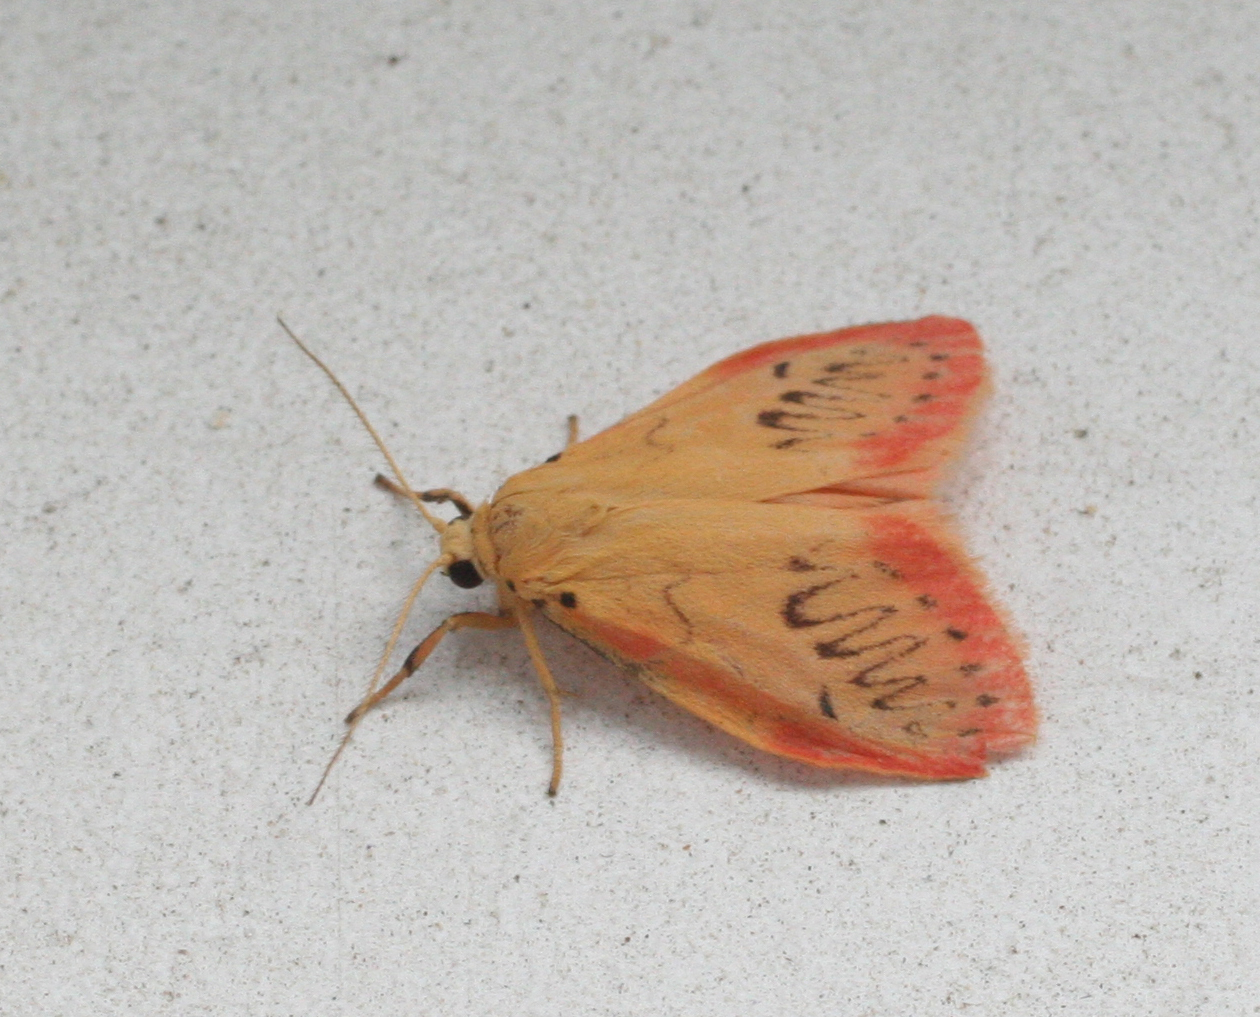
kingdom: Animalia
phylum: Arthropoda
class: Insecta
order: Lepidoptera
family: Erebidae
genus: Miltochrista
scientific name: Miltochrista miniata
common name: Rosy footman
